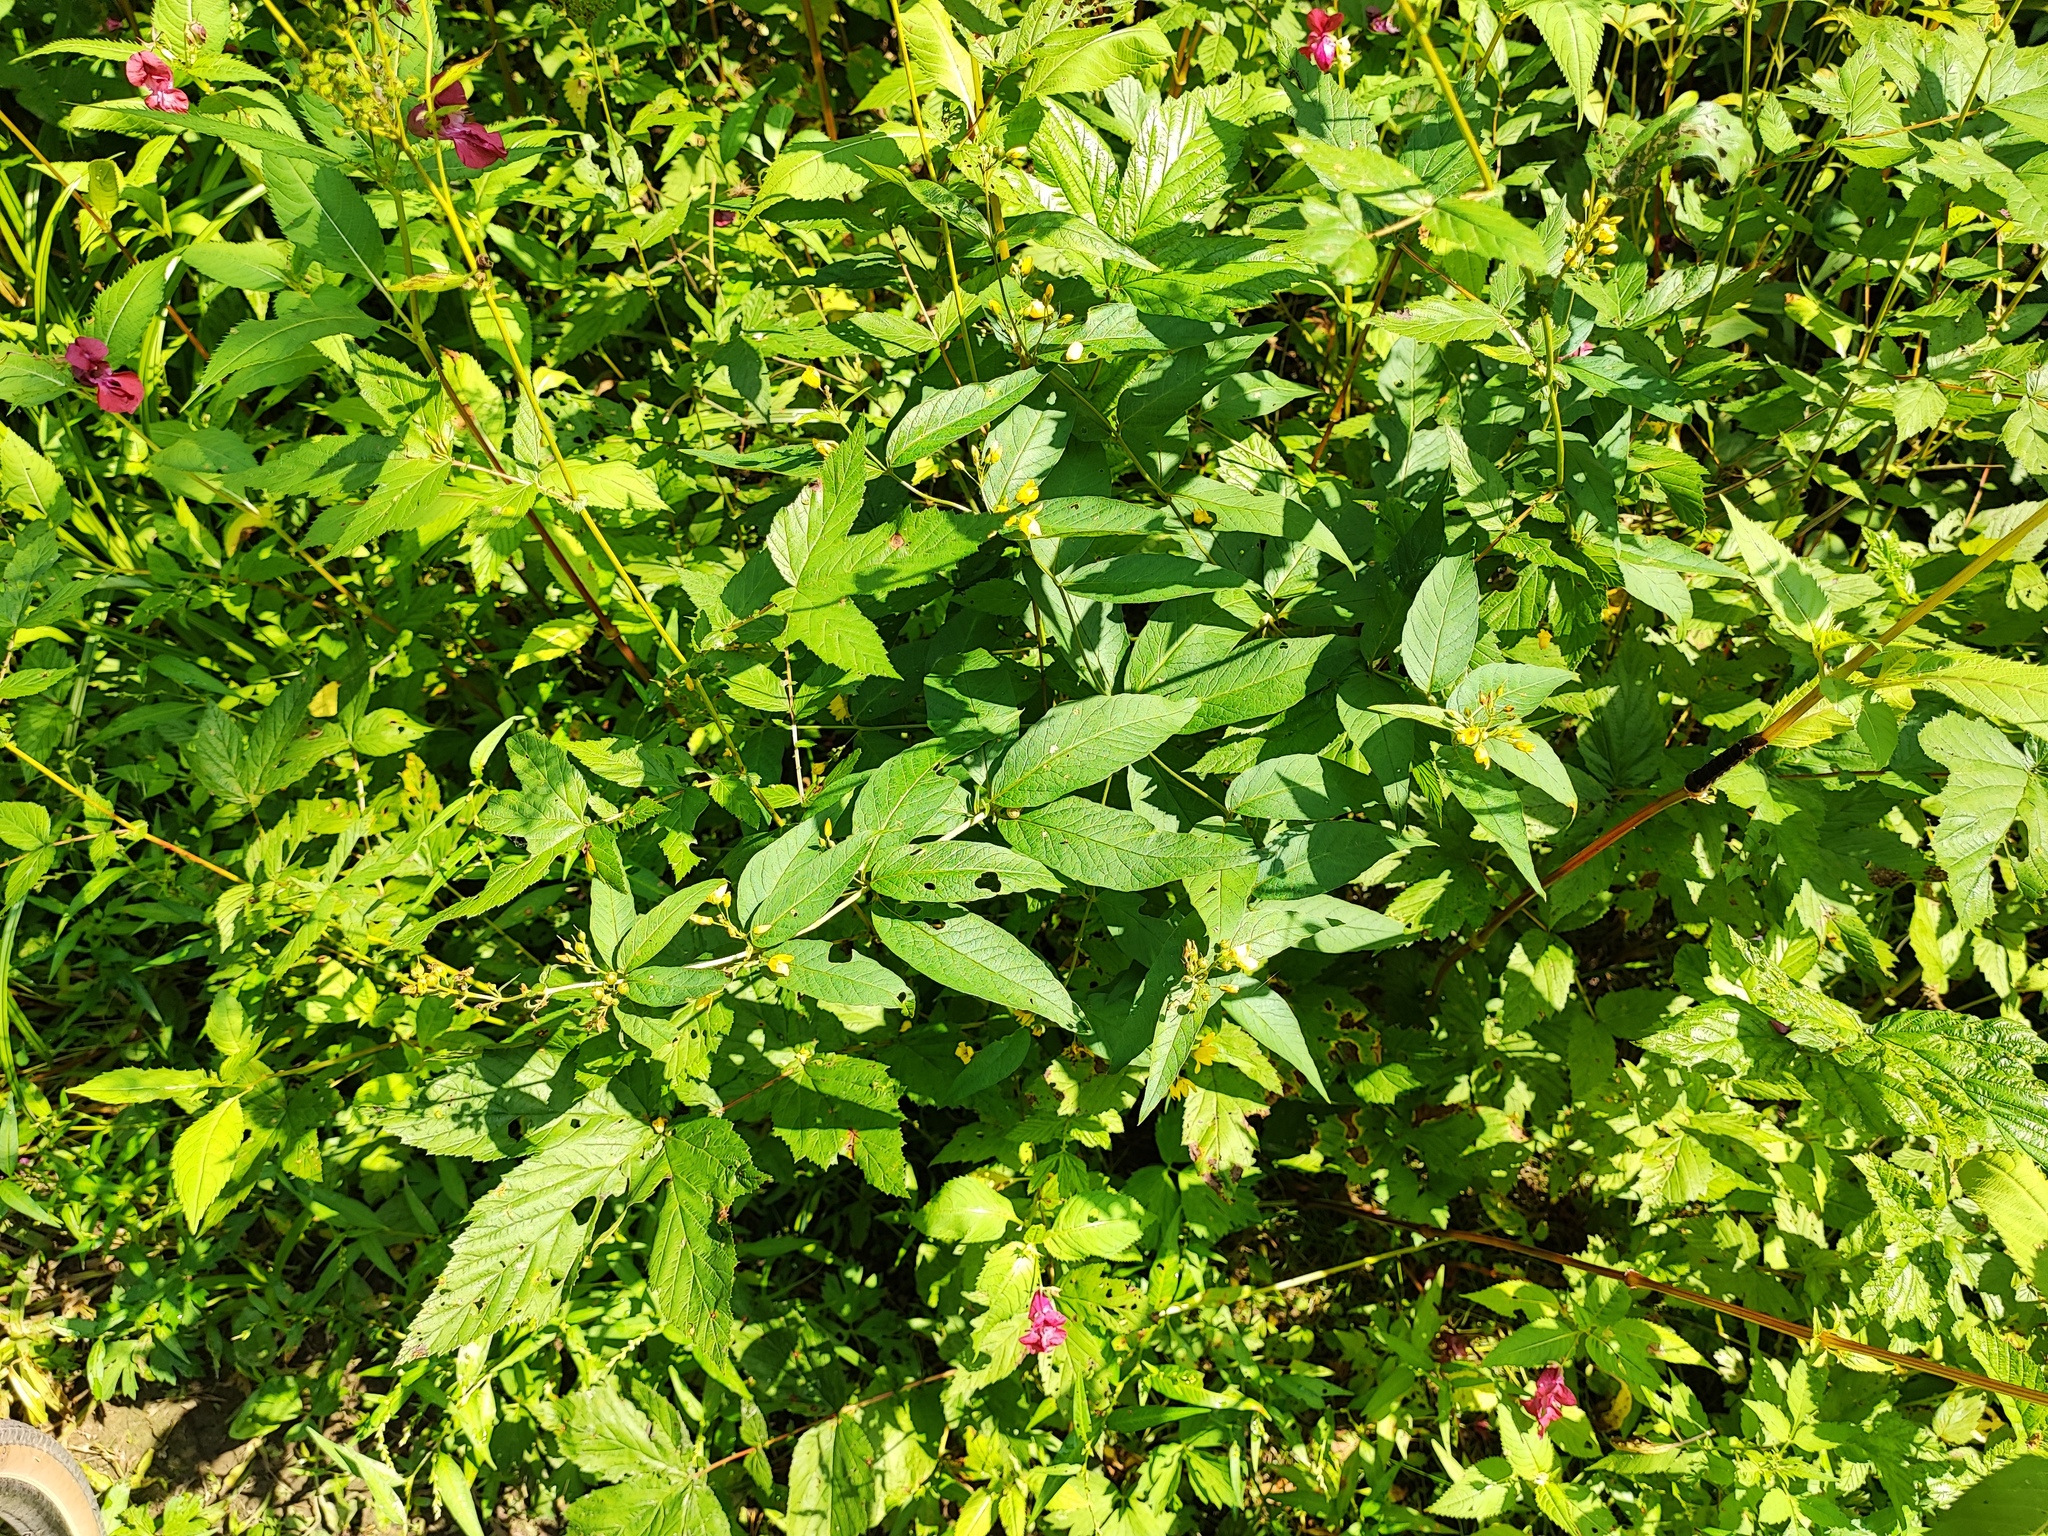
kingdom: Plantae
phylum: Tracheophyta
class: Magnoliopsida
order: Ericales
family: Primulaceae
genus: Lysimachia
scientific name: Lysimachia vulgaris
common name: Yellow loosestrife
